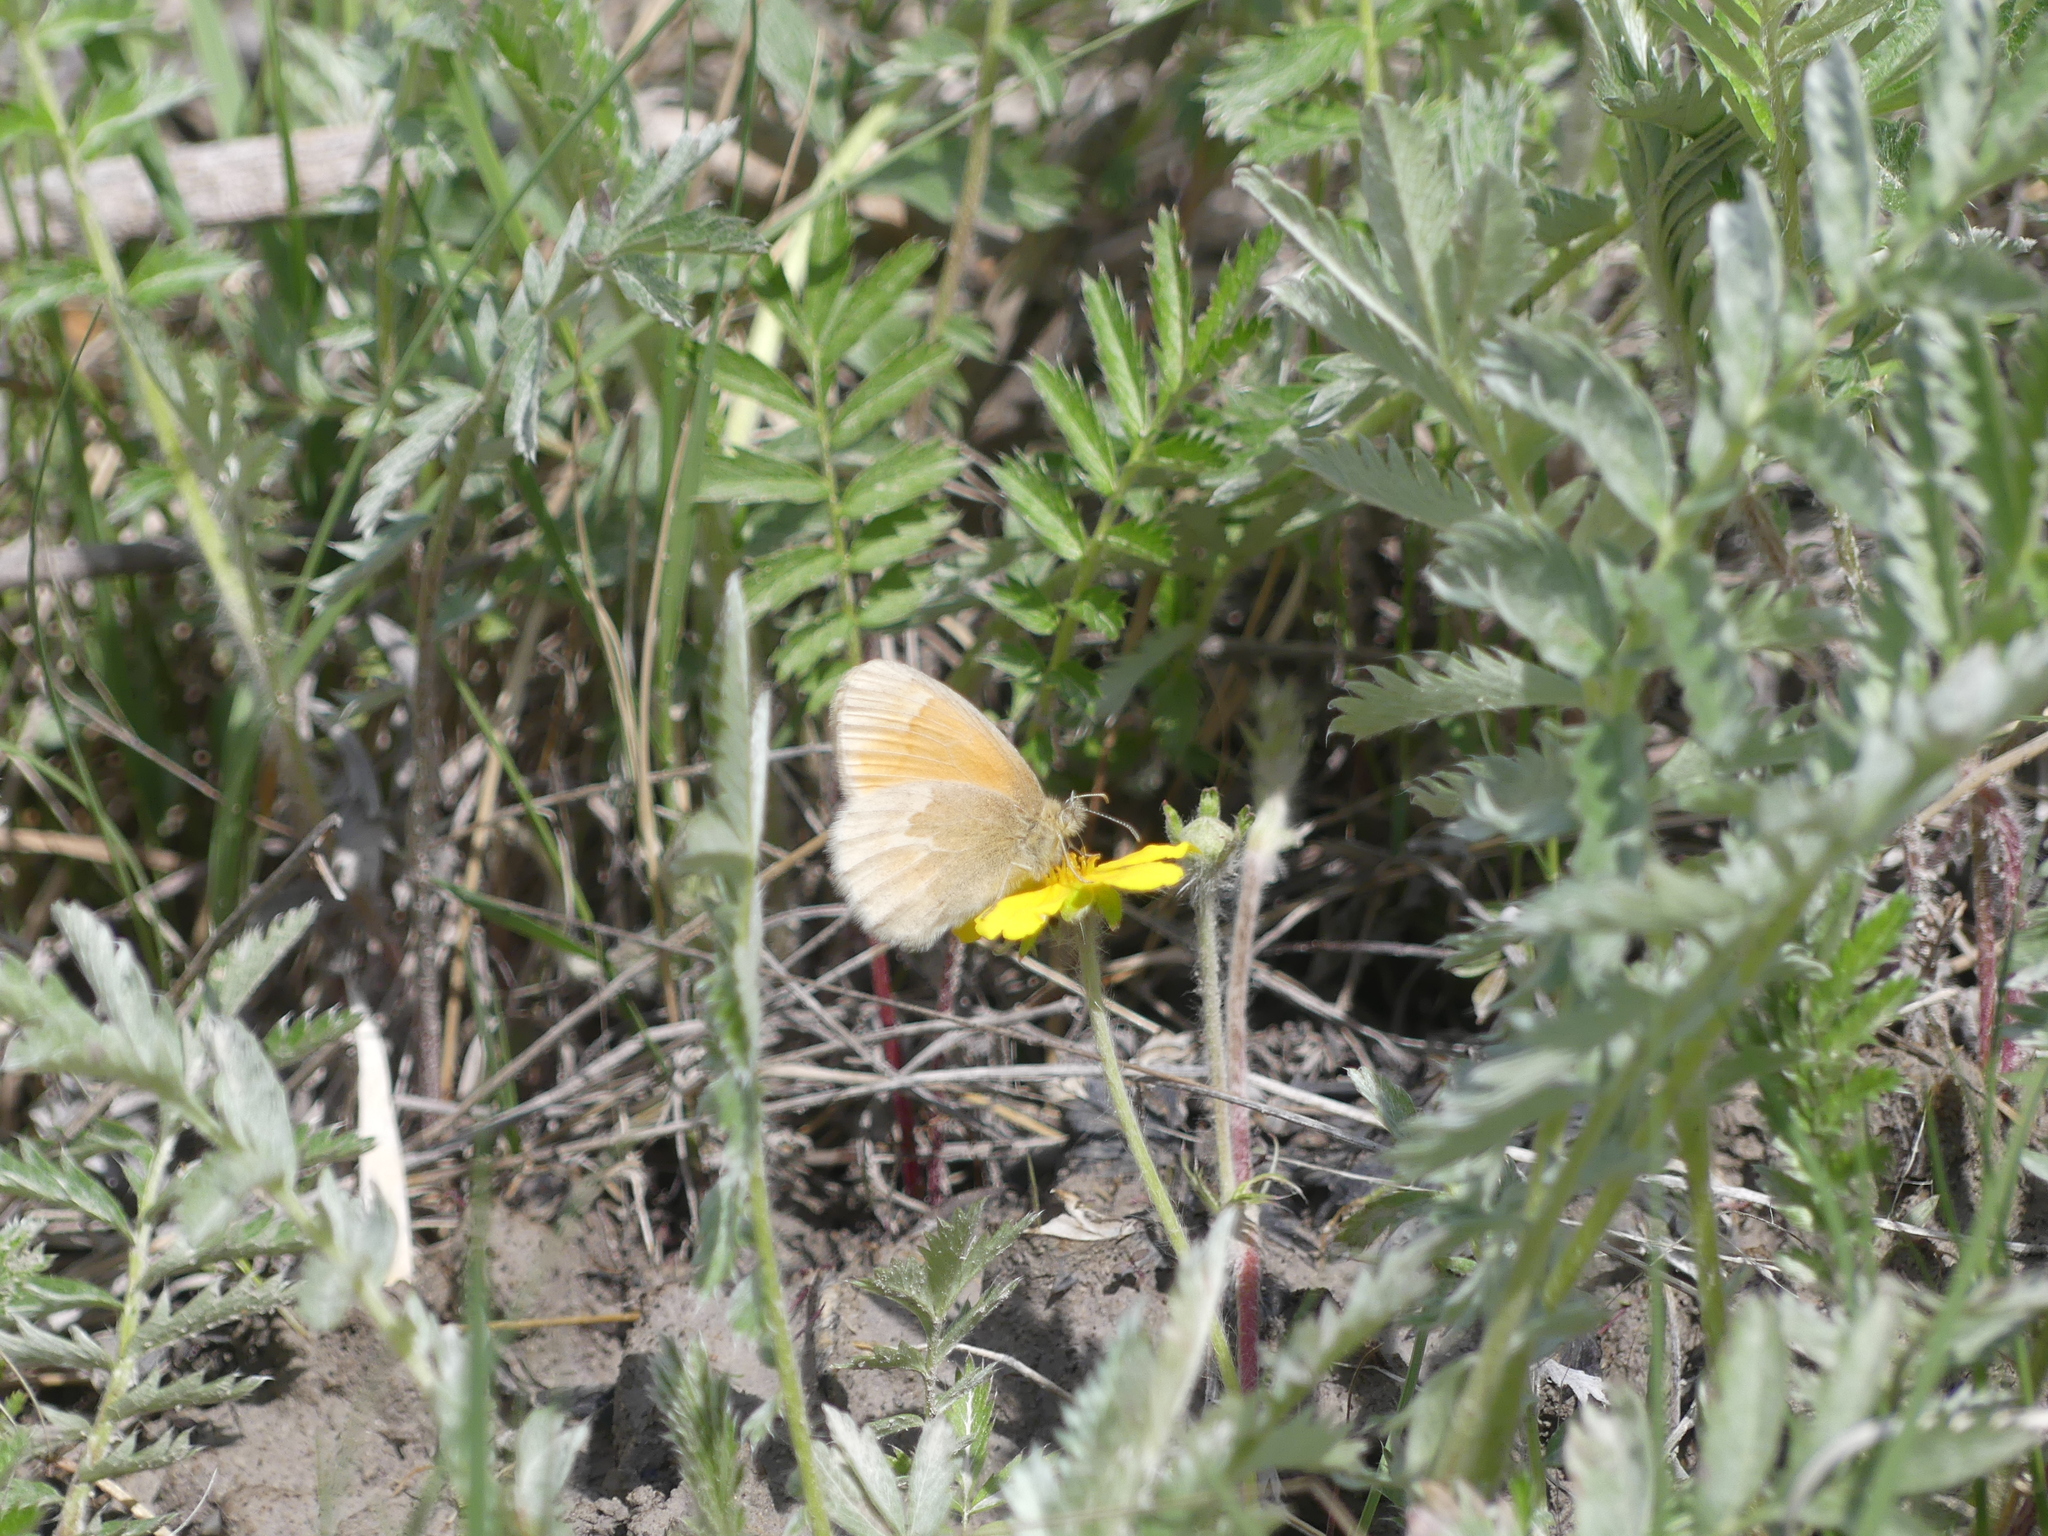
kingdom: Animalia
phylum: Arthropoda
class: Insecta
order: Lepidoptera
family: Nymphalidae
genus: Coenonympha
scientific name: Coenonympha california
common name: Common ringlet
